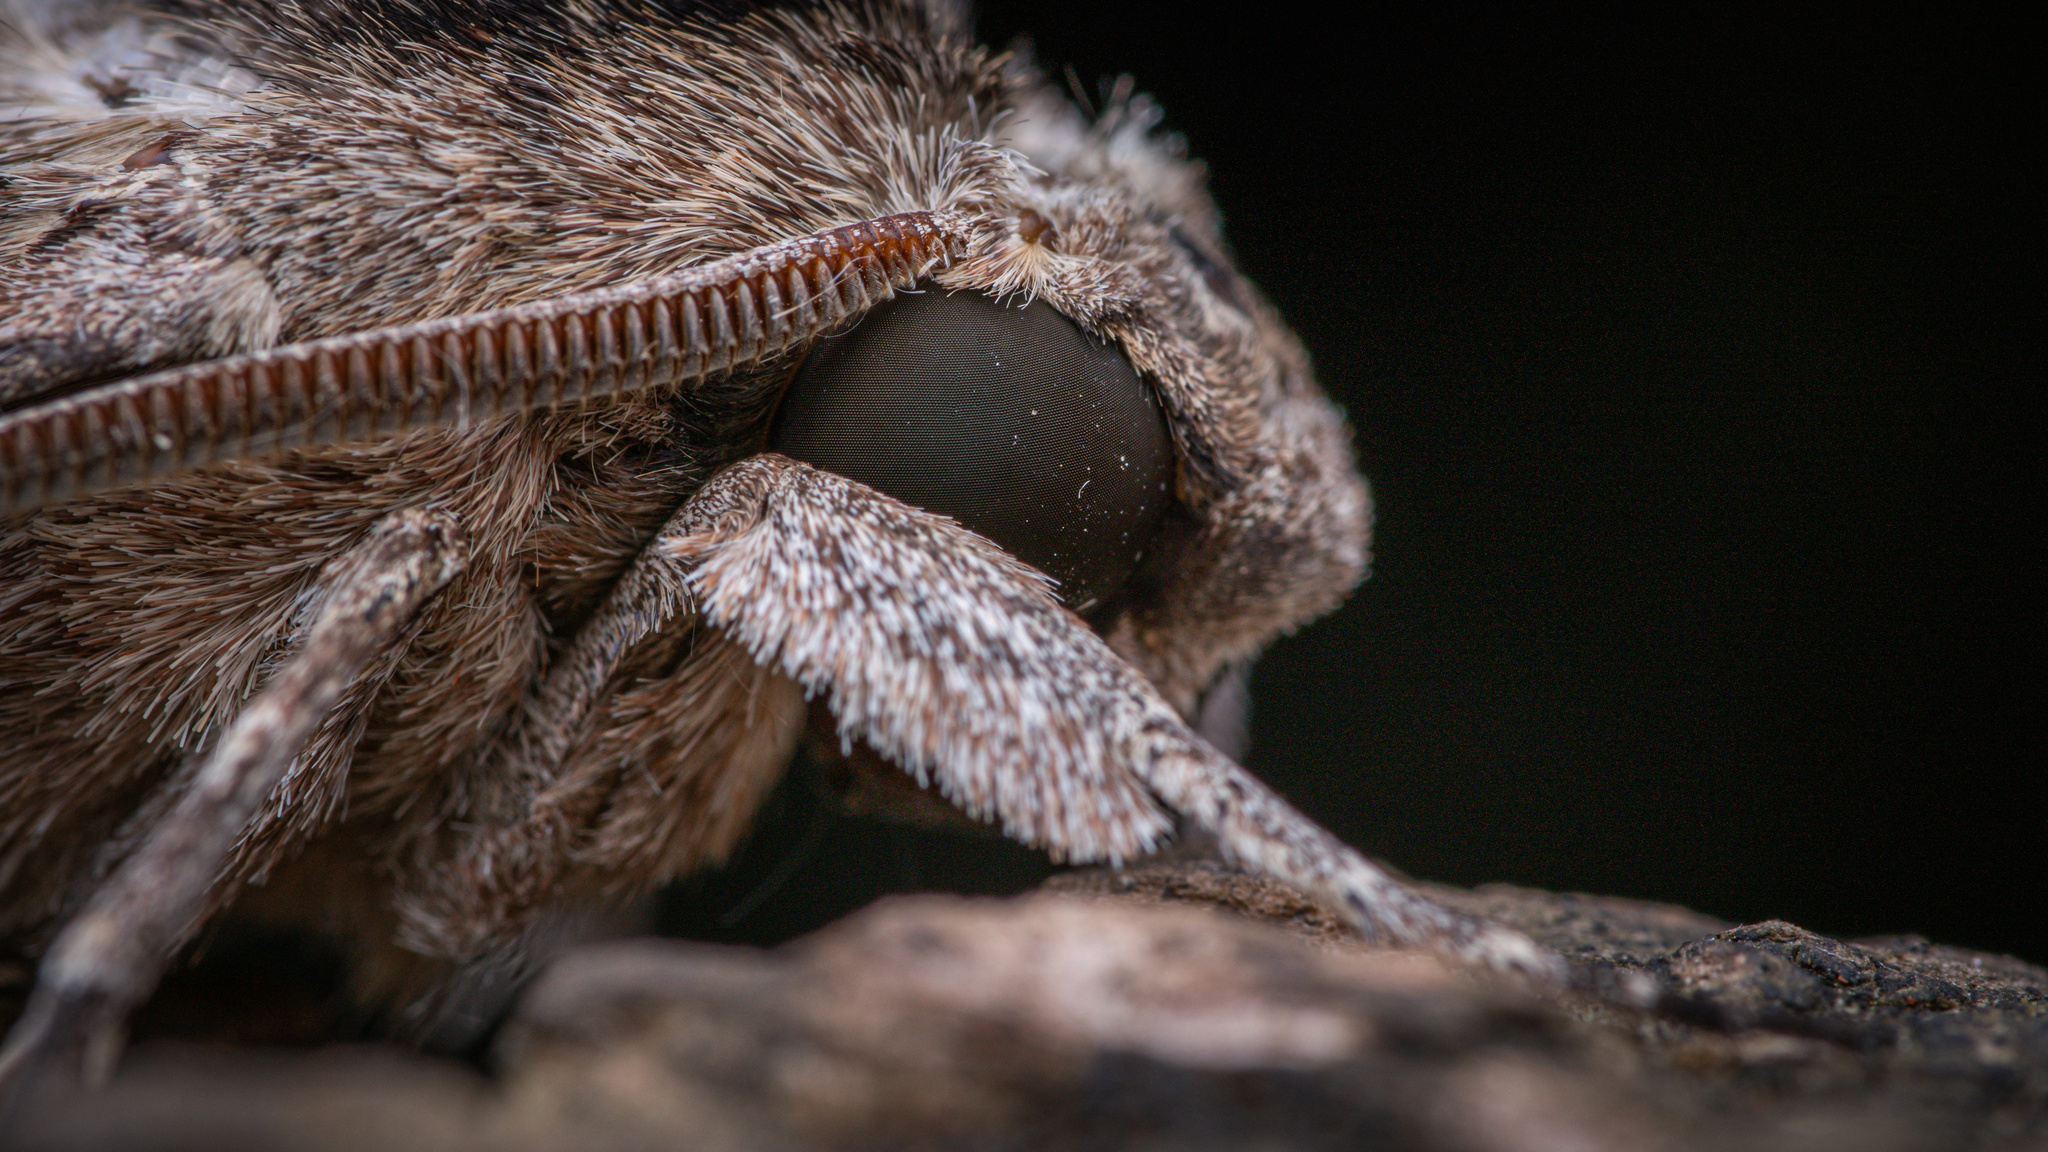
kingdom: Animalia
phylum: Arthropoda
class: Insecta
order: Lepidoptera
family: Sphingidae
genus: Agrius
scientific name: Agrius convolvuli
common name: Convolvulus hawkmoth
